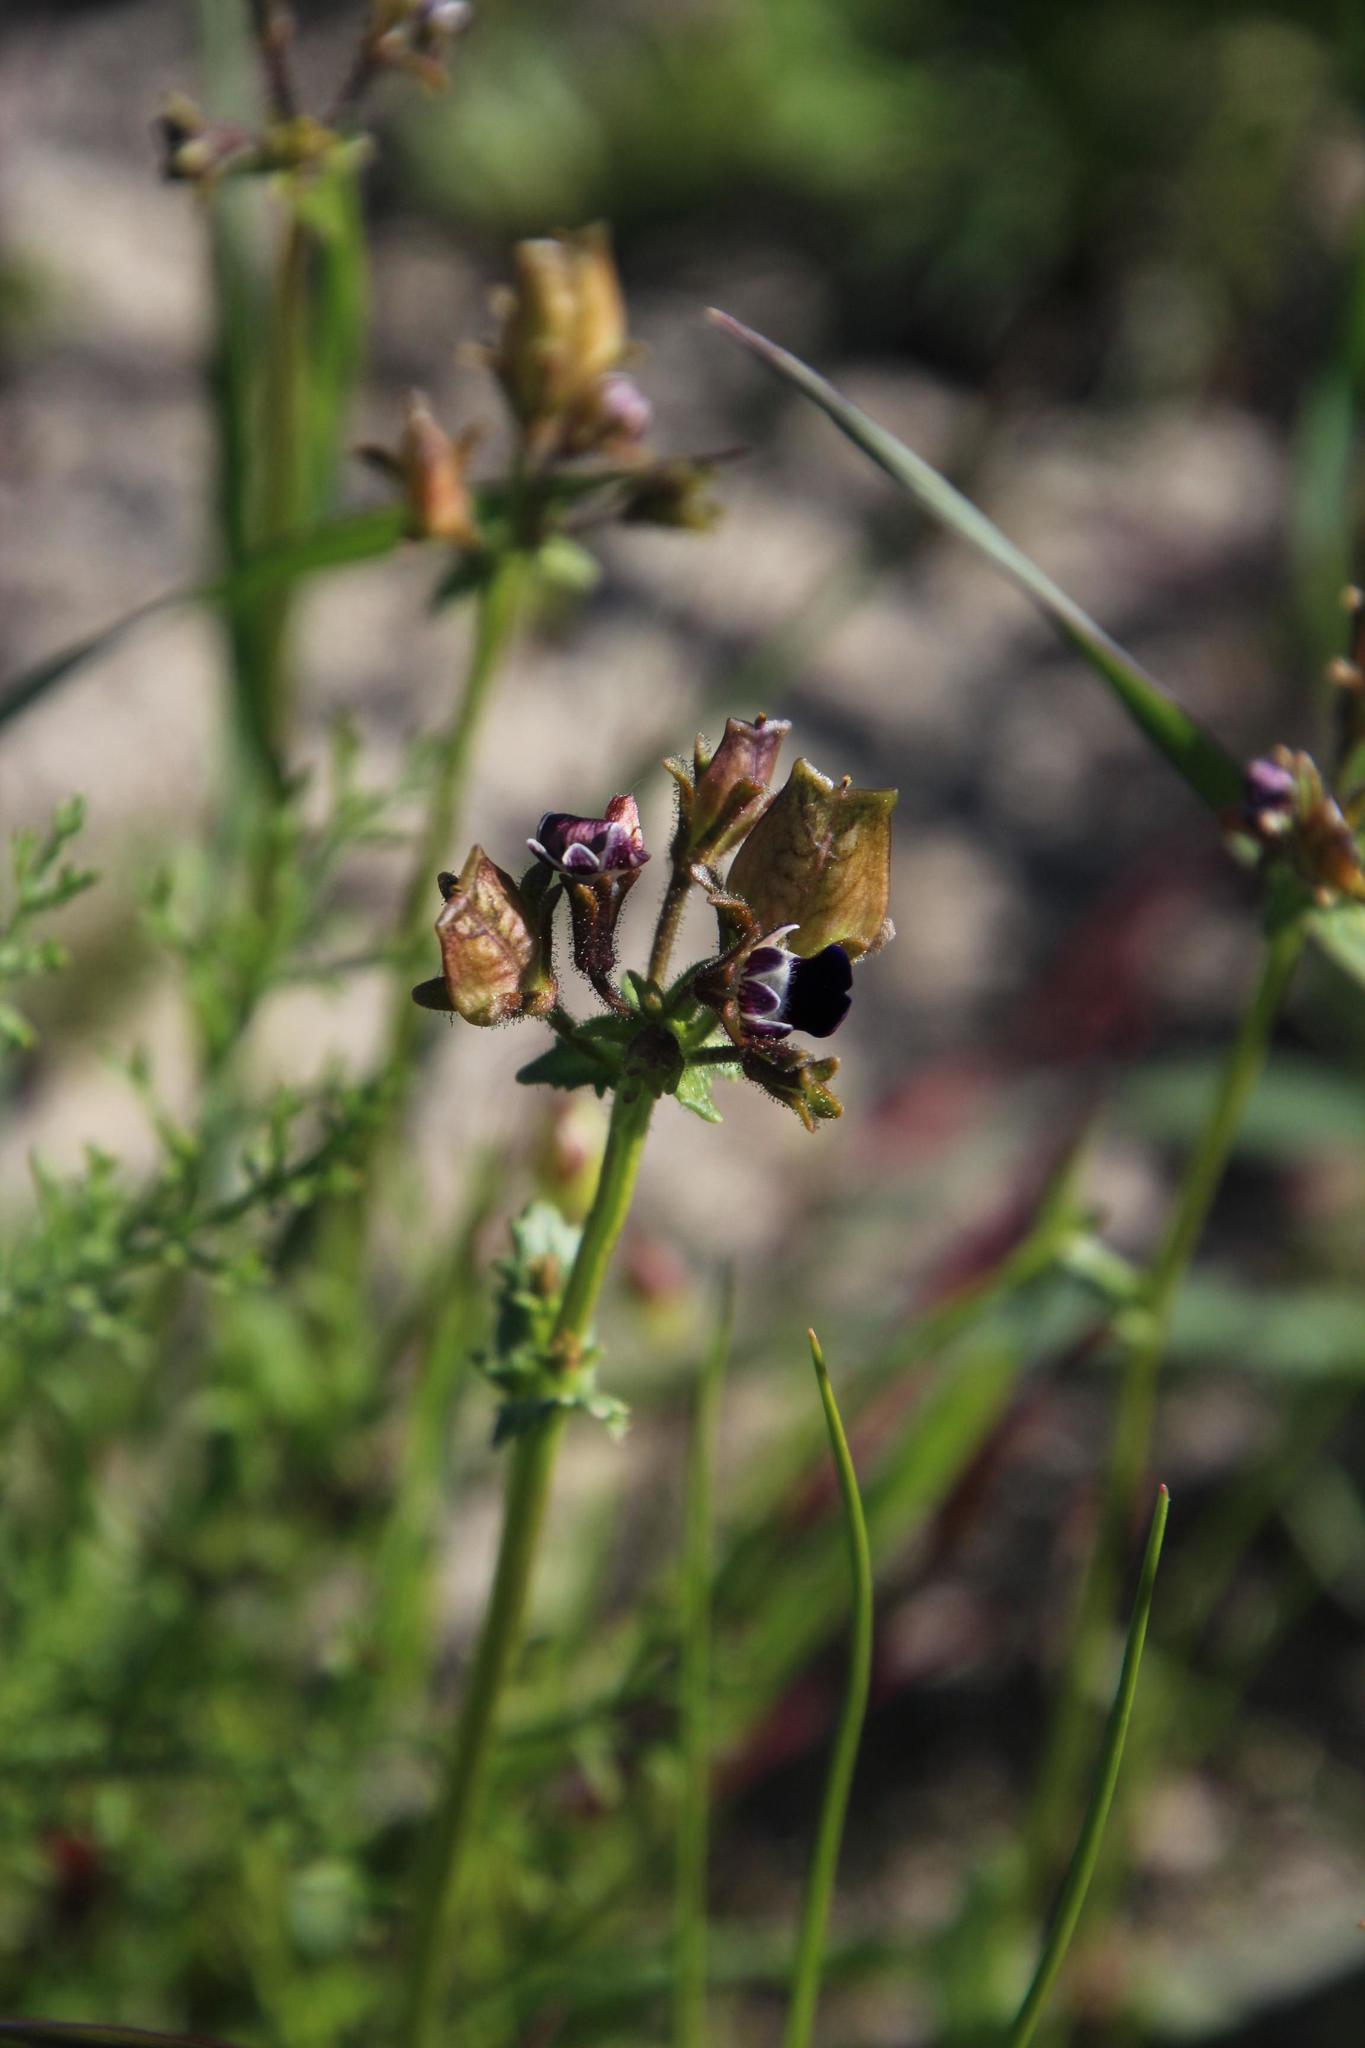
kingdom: Plantae
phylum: Tracheophyta
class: Magnoliopsida
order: Lamiales
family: Scrophulariaceae
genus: Nemesia
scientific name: Nemesia barbata
